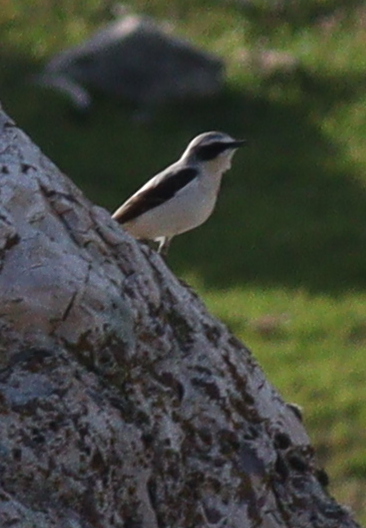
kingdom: Animalia
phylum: Chordata
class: Aves
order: Passeriformes
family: Muscicapidae
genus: Oenanthe
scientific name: Oenanthe oenanthe
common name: Northern wheatear
